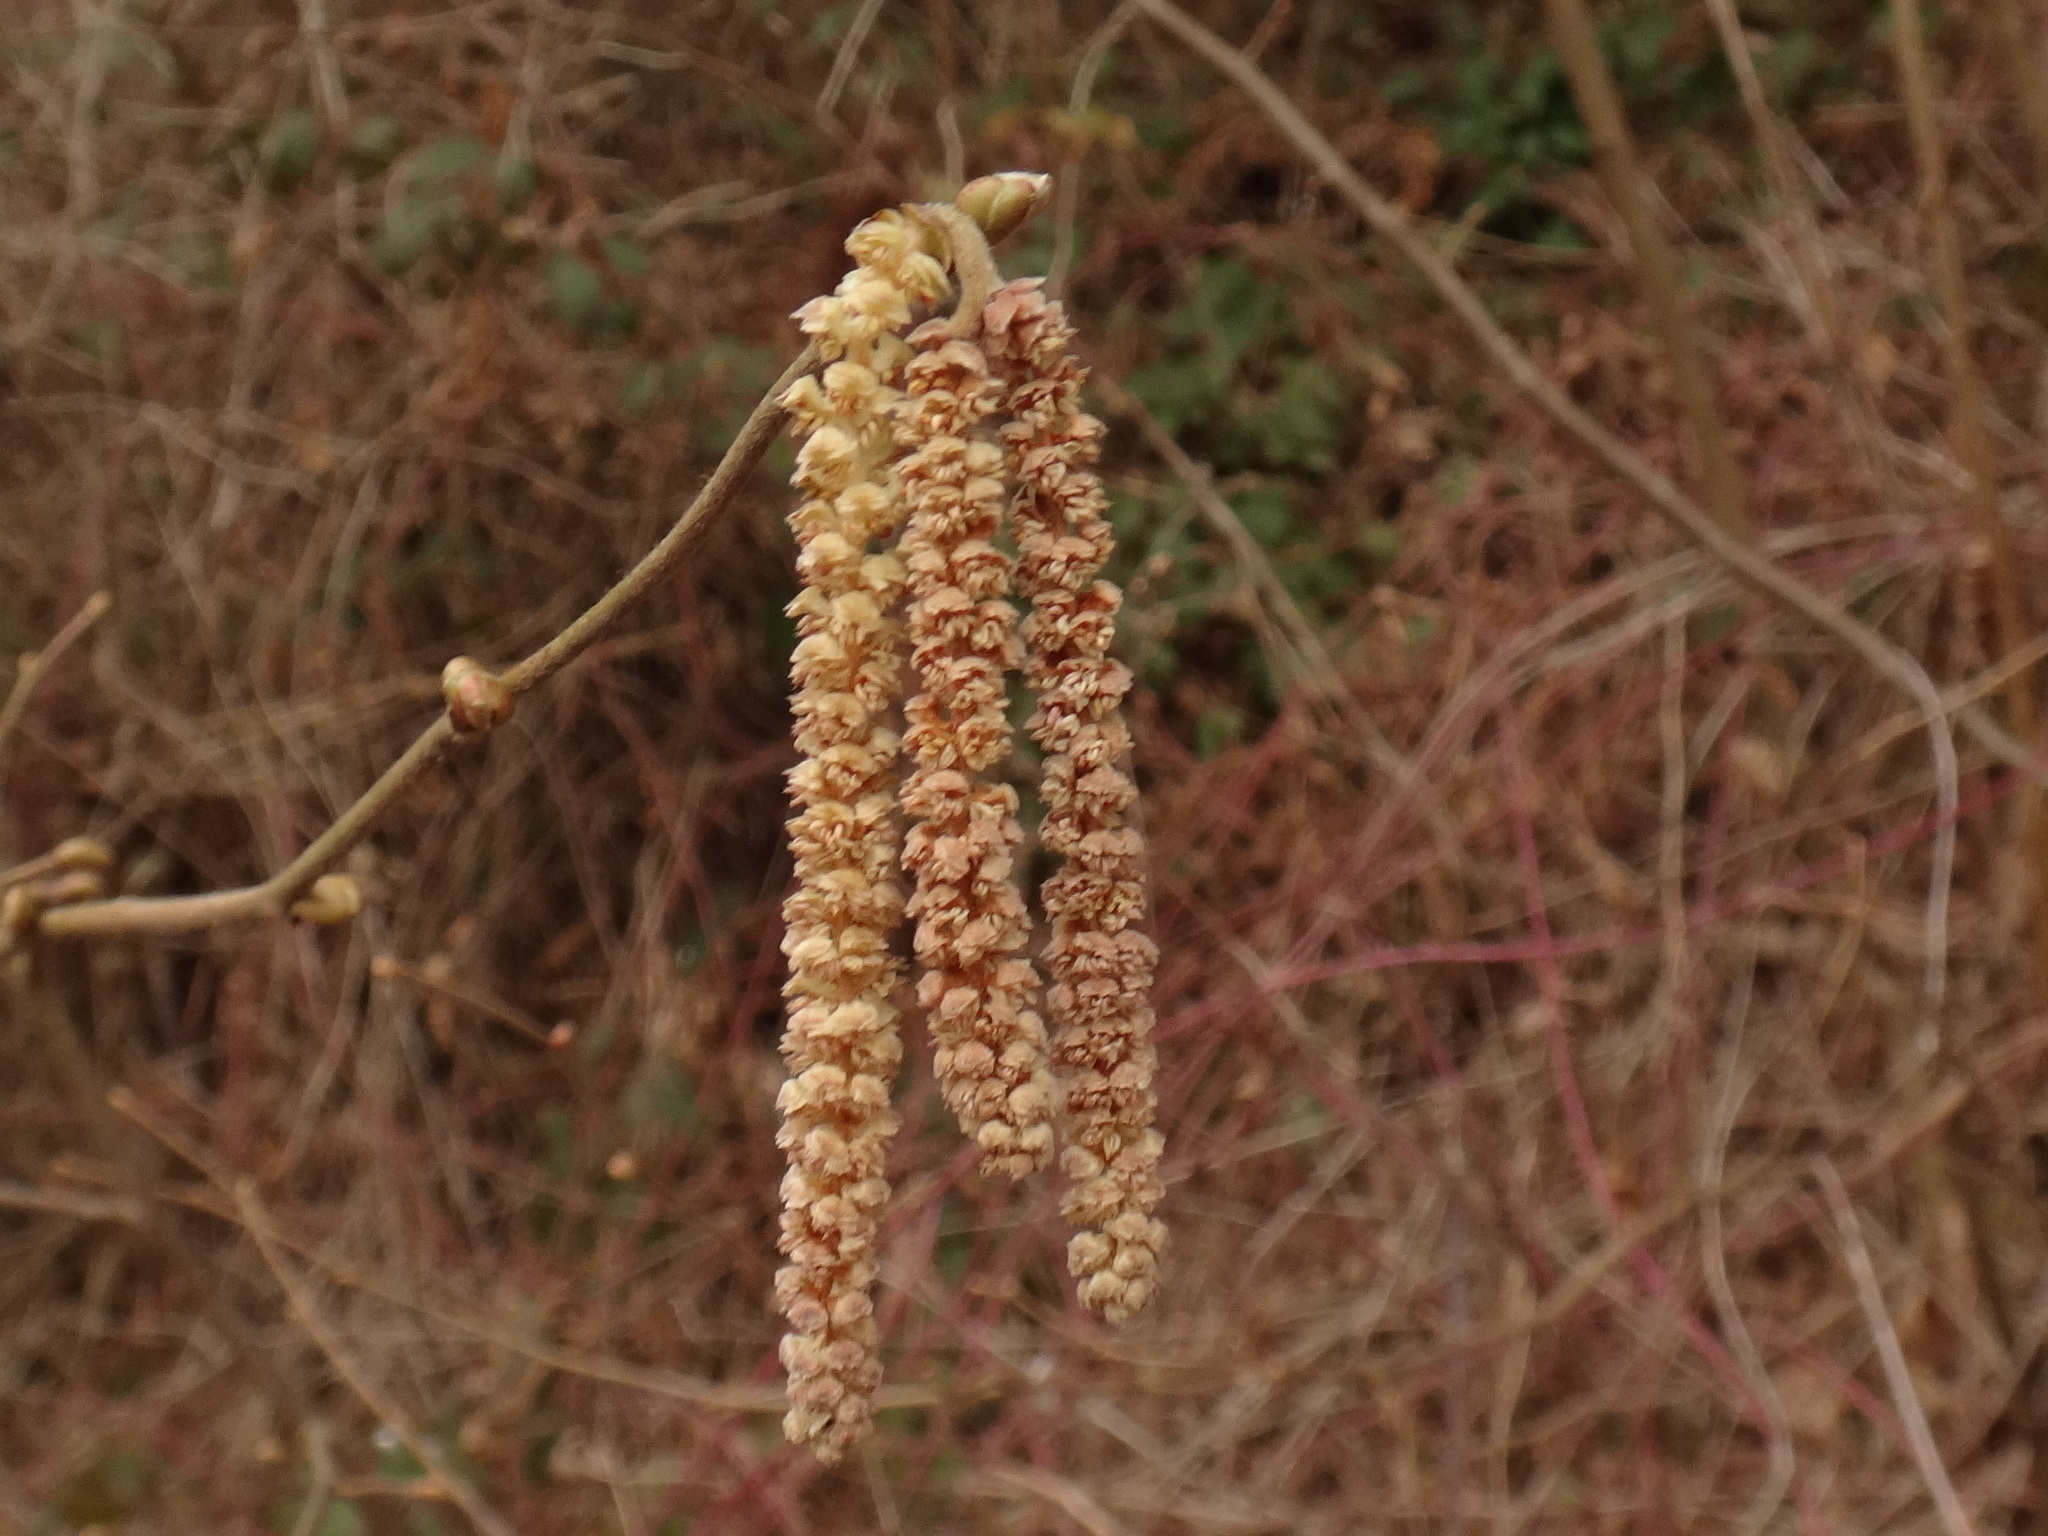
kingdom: Plantae
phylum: Tracheophyta
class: Magnoliopsida
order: Fagales
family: Betulaceae
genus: Corylus
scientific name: Corylus avellana
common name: European hazel
